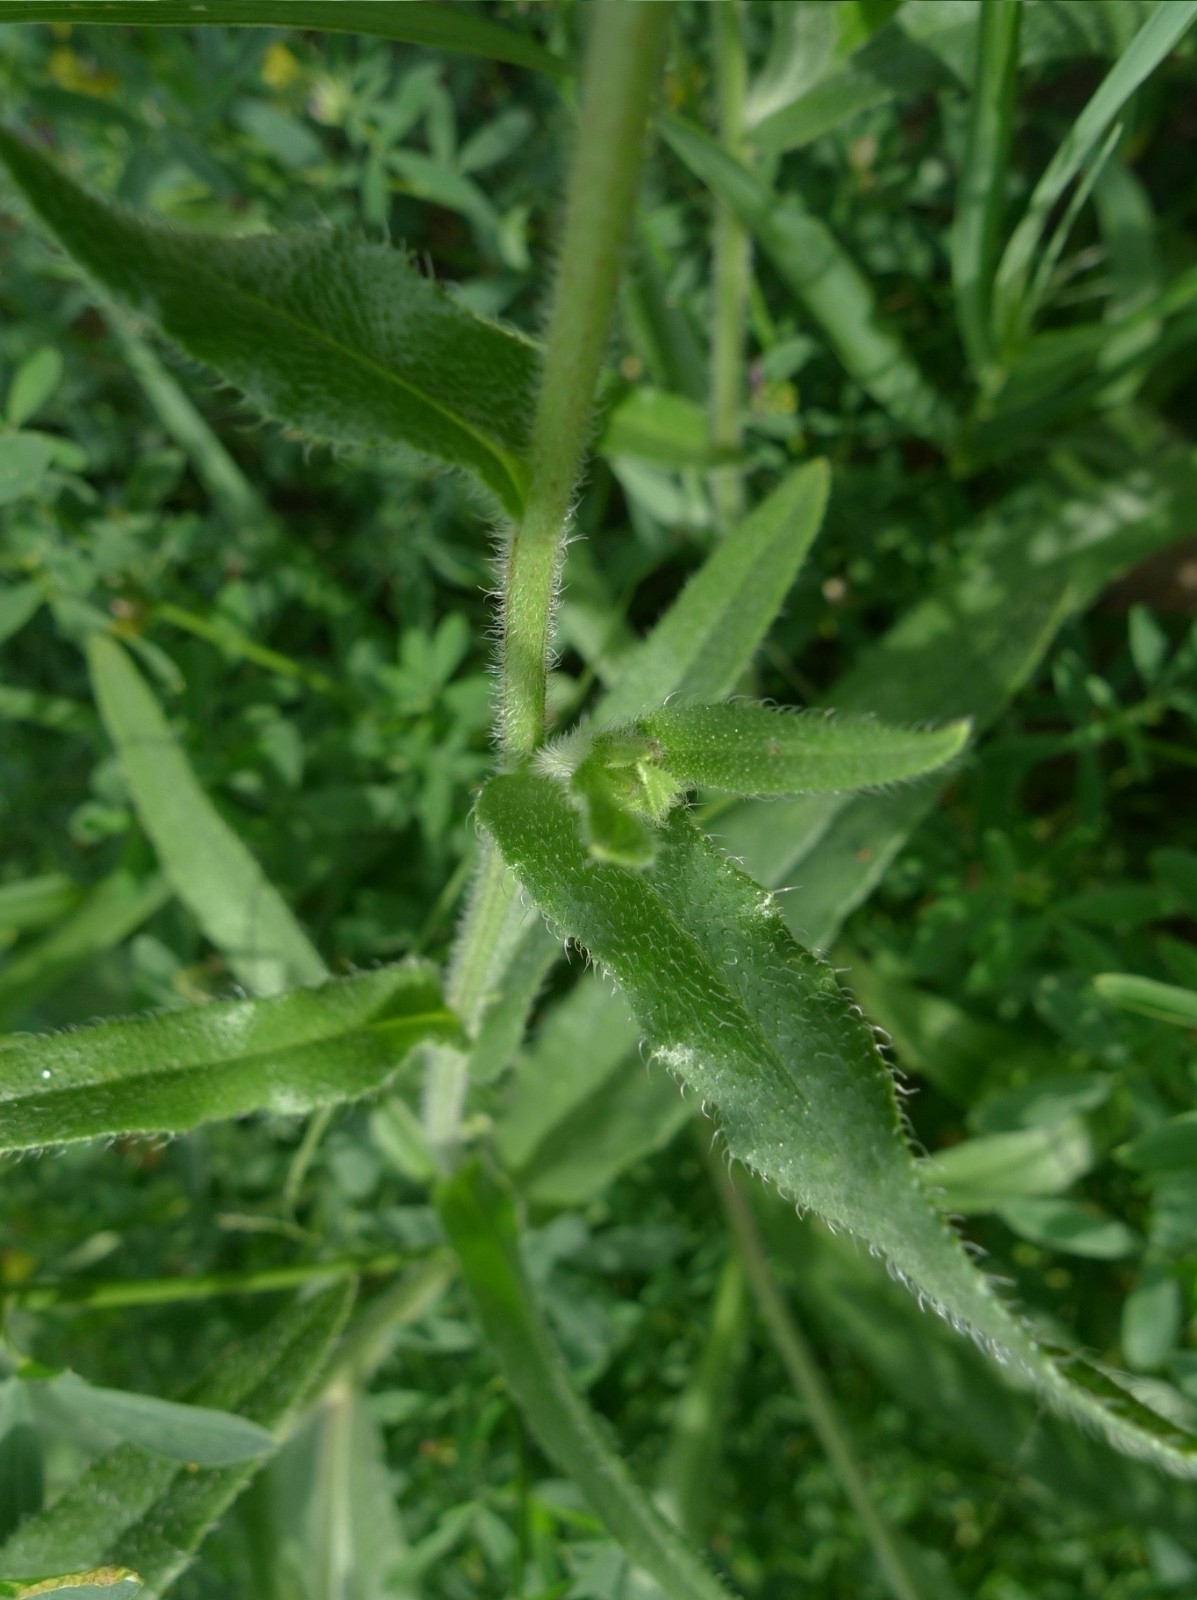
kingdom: Plantae
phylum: Tracheophyta
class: Magnoliopsida
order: Boraginales
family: Boraginaceae
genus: Anchusa
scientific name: Anchusa officinalis
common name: Alkanet
